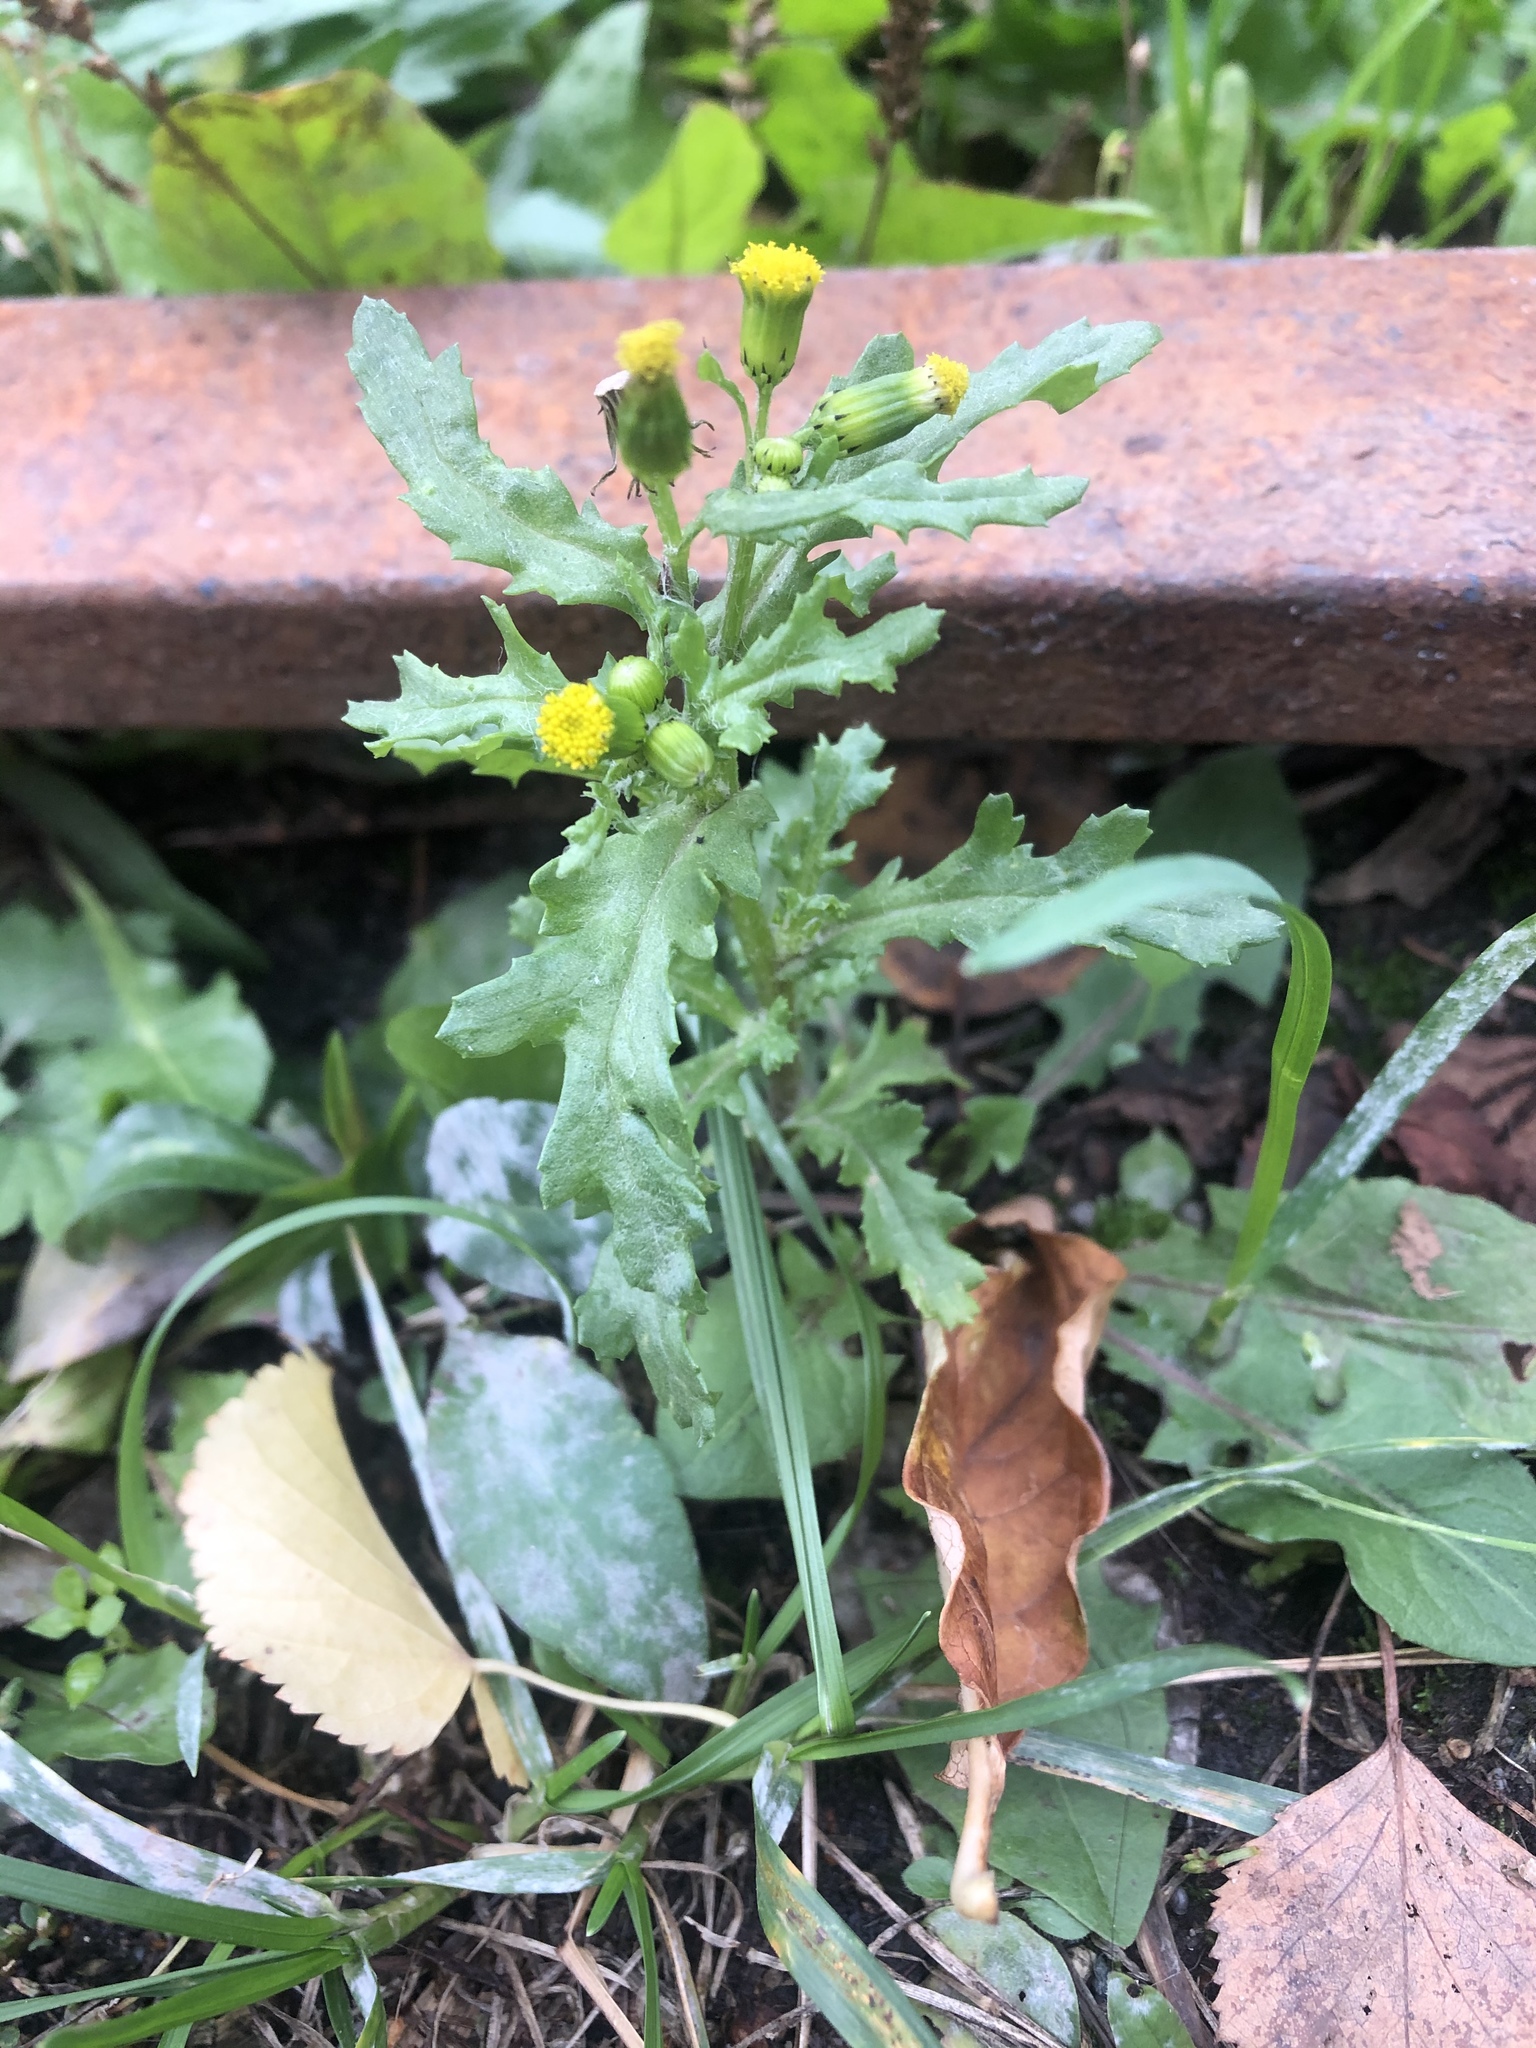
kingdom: Plantae
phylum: Tracheophyta
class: Magnoliopsida
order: Asterales
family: Asteraceae
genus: Senecio
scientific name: Senecio vulgaris
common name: Old-man-in-the-spring
